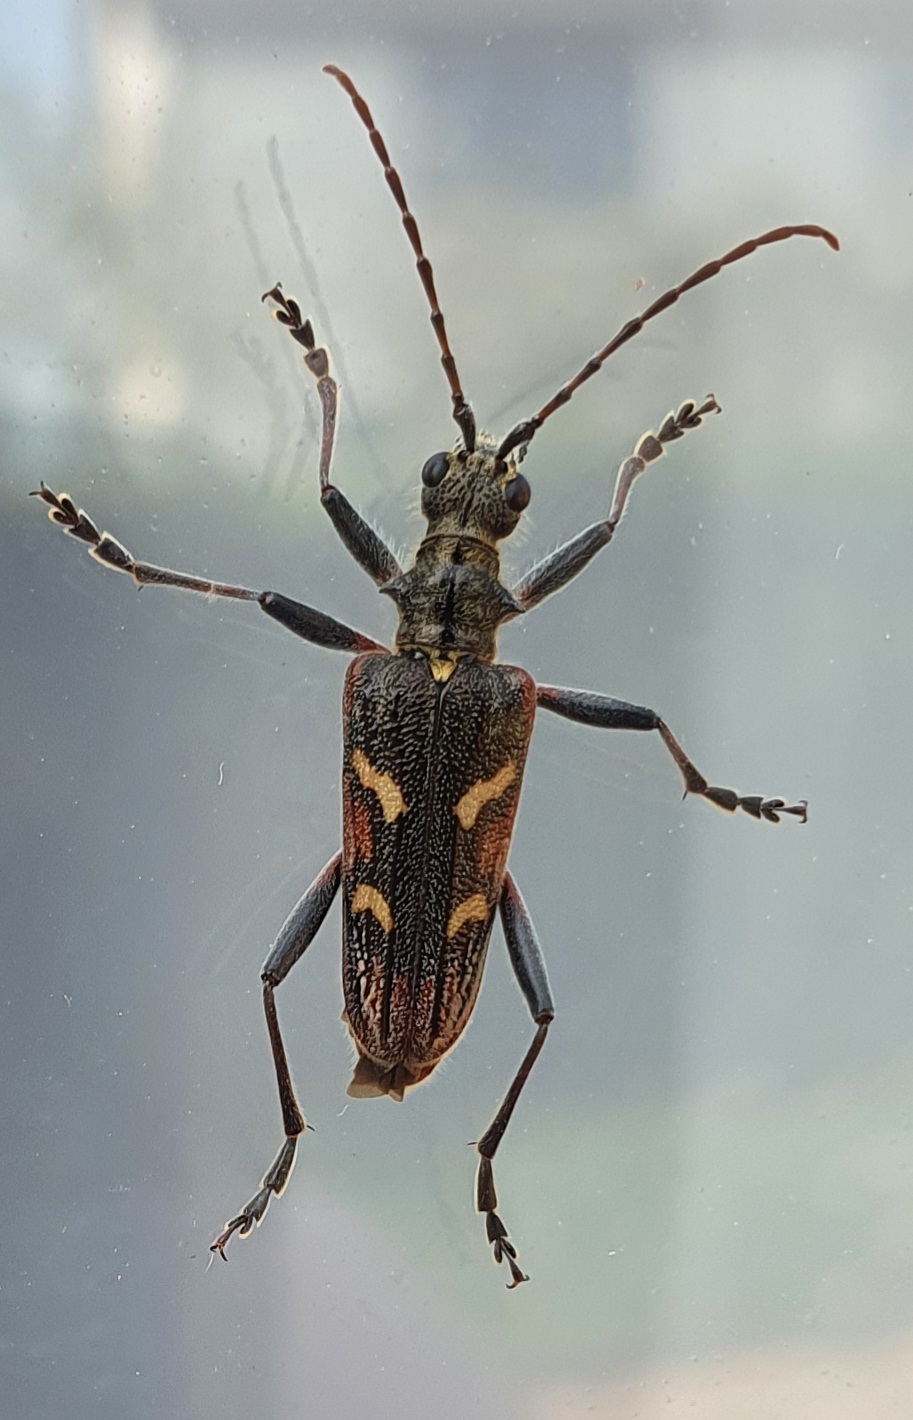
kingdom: Animalia
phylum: Arthropoda
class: Insecta
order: Coleoptera
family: Cerambycidae
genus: Rhagium
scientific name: Rhagium bifasciatum
